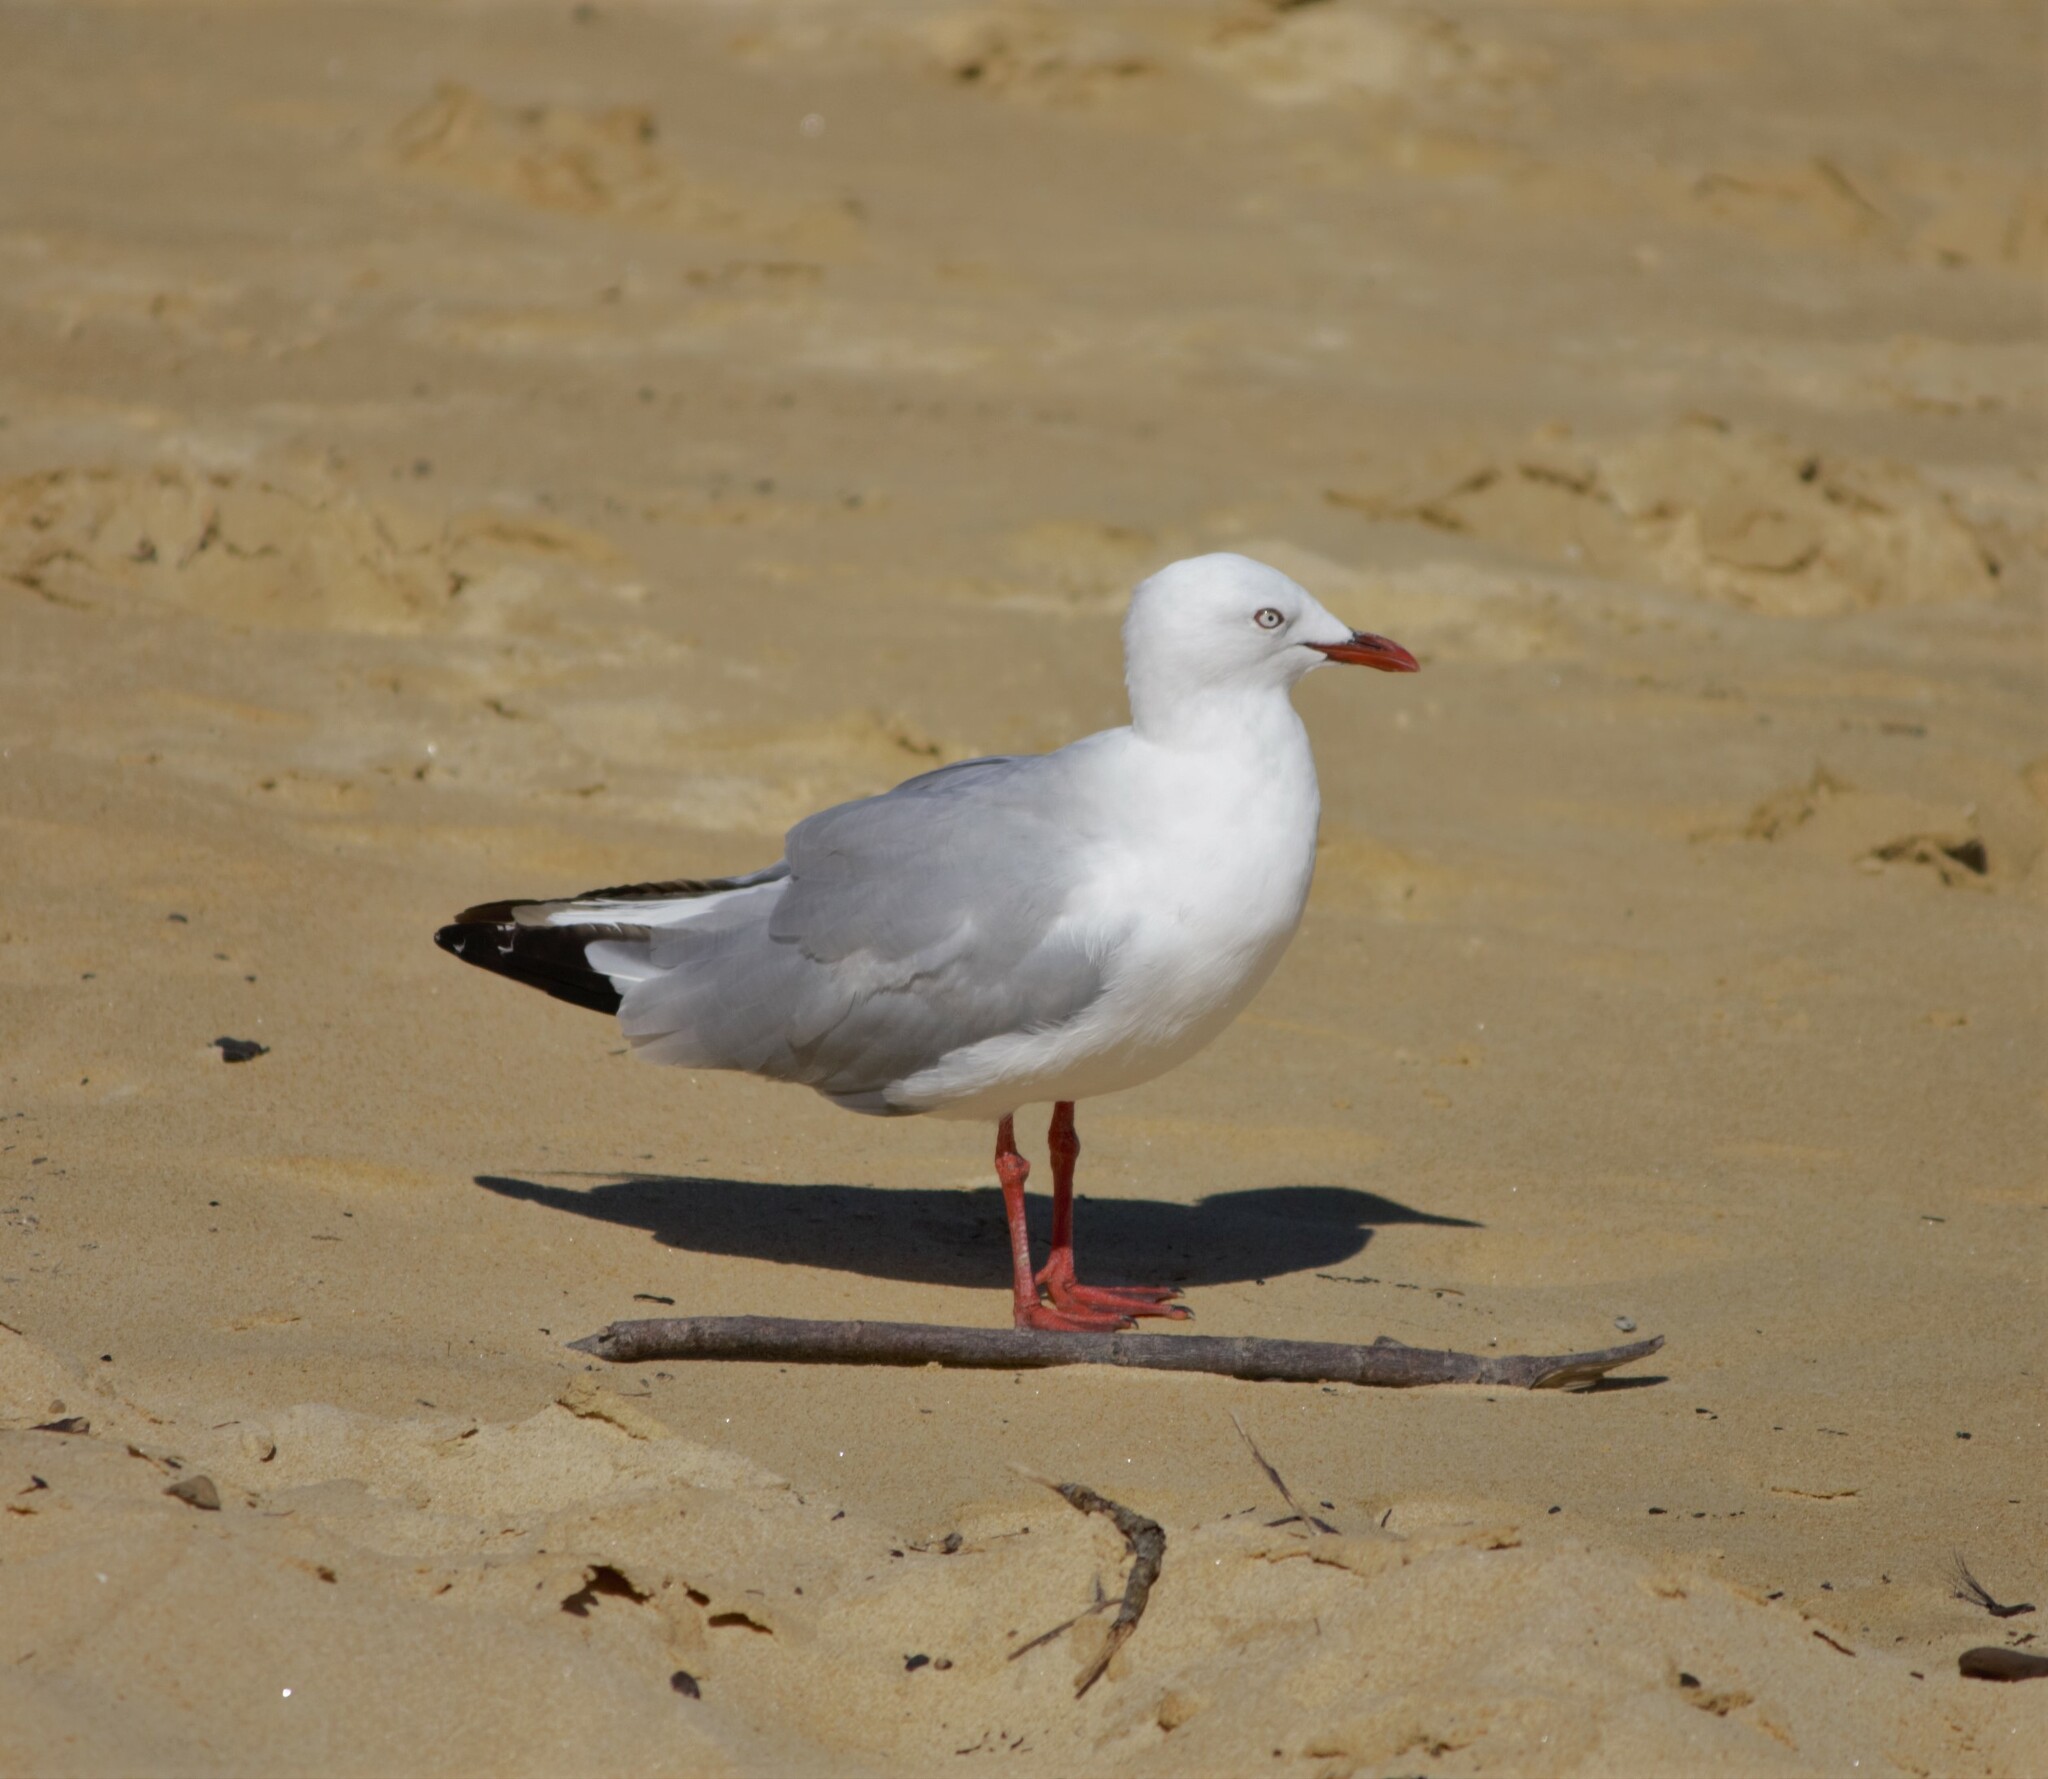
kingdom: Animalia
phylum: Chordata
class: Aves
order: Charadriiformes
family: Laridae
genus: Chroicocephalus
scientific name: Chroicocephalus novaehollandiae
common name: Silver gull
